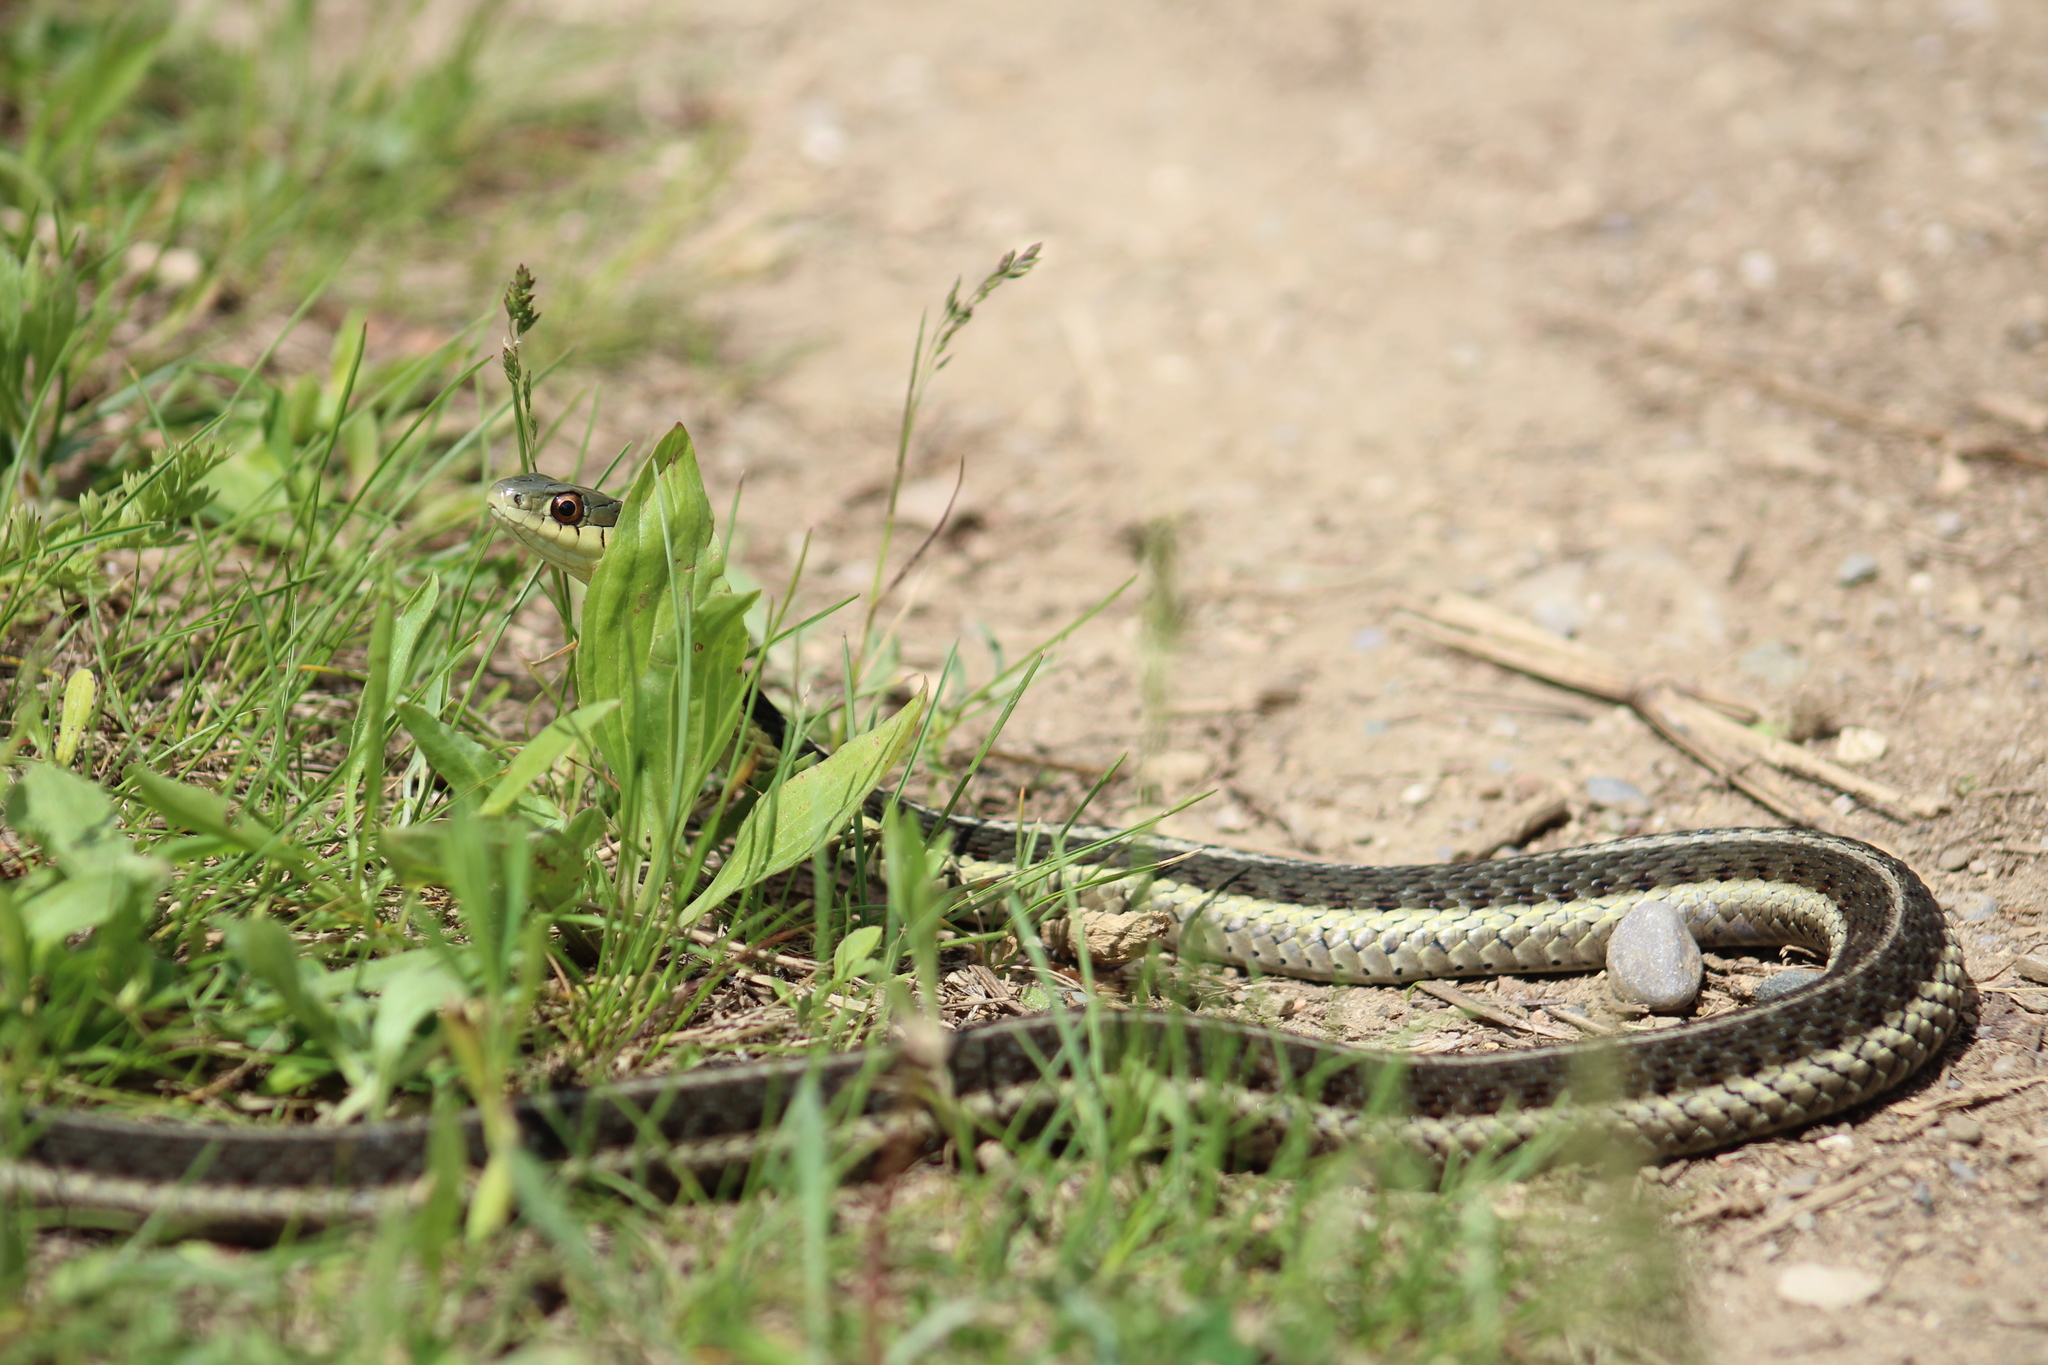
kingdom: Animalia
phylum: Chordata
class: Squamata
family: Colubridae
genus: Thamnophis
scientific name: Thamnophis sirtalis
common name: Common garter snake
